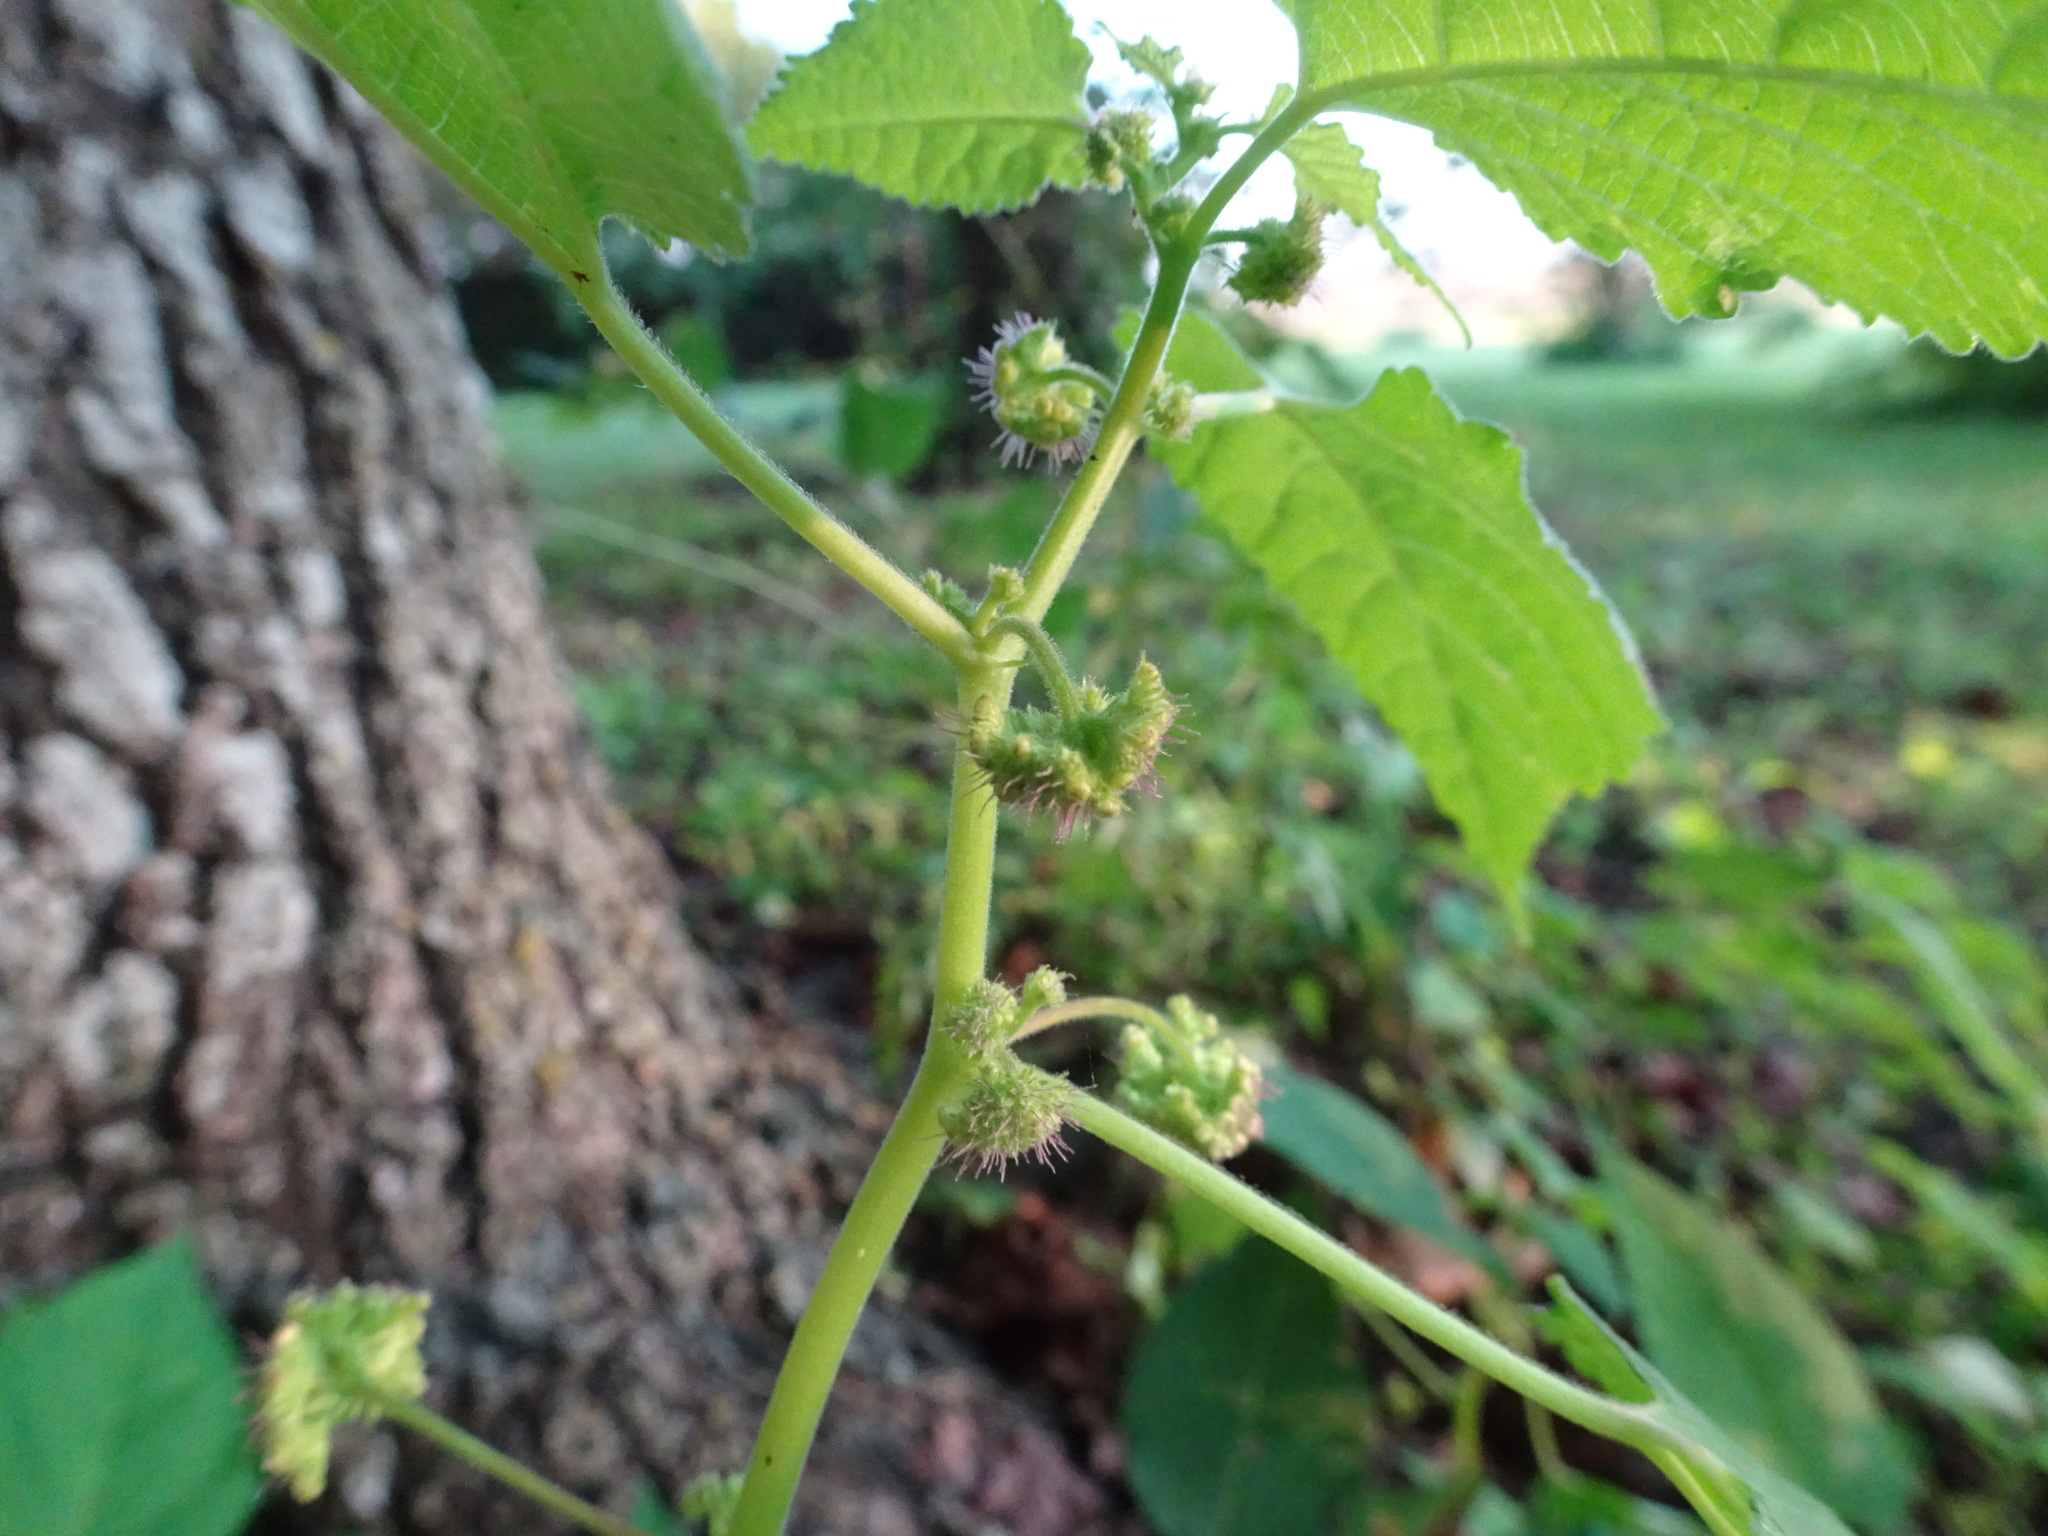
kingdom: Plantae
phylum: Tracheophyta
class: Magnoliopsida
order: Rosales
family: Moraceae
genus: Fatoua
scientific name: Fatoua villosa
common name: Hairy crabweed
